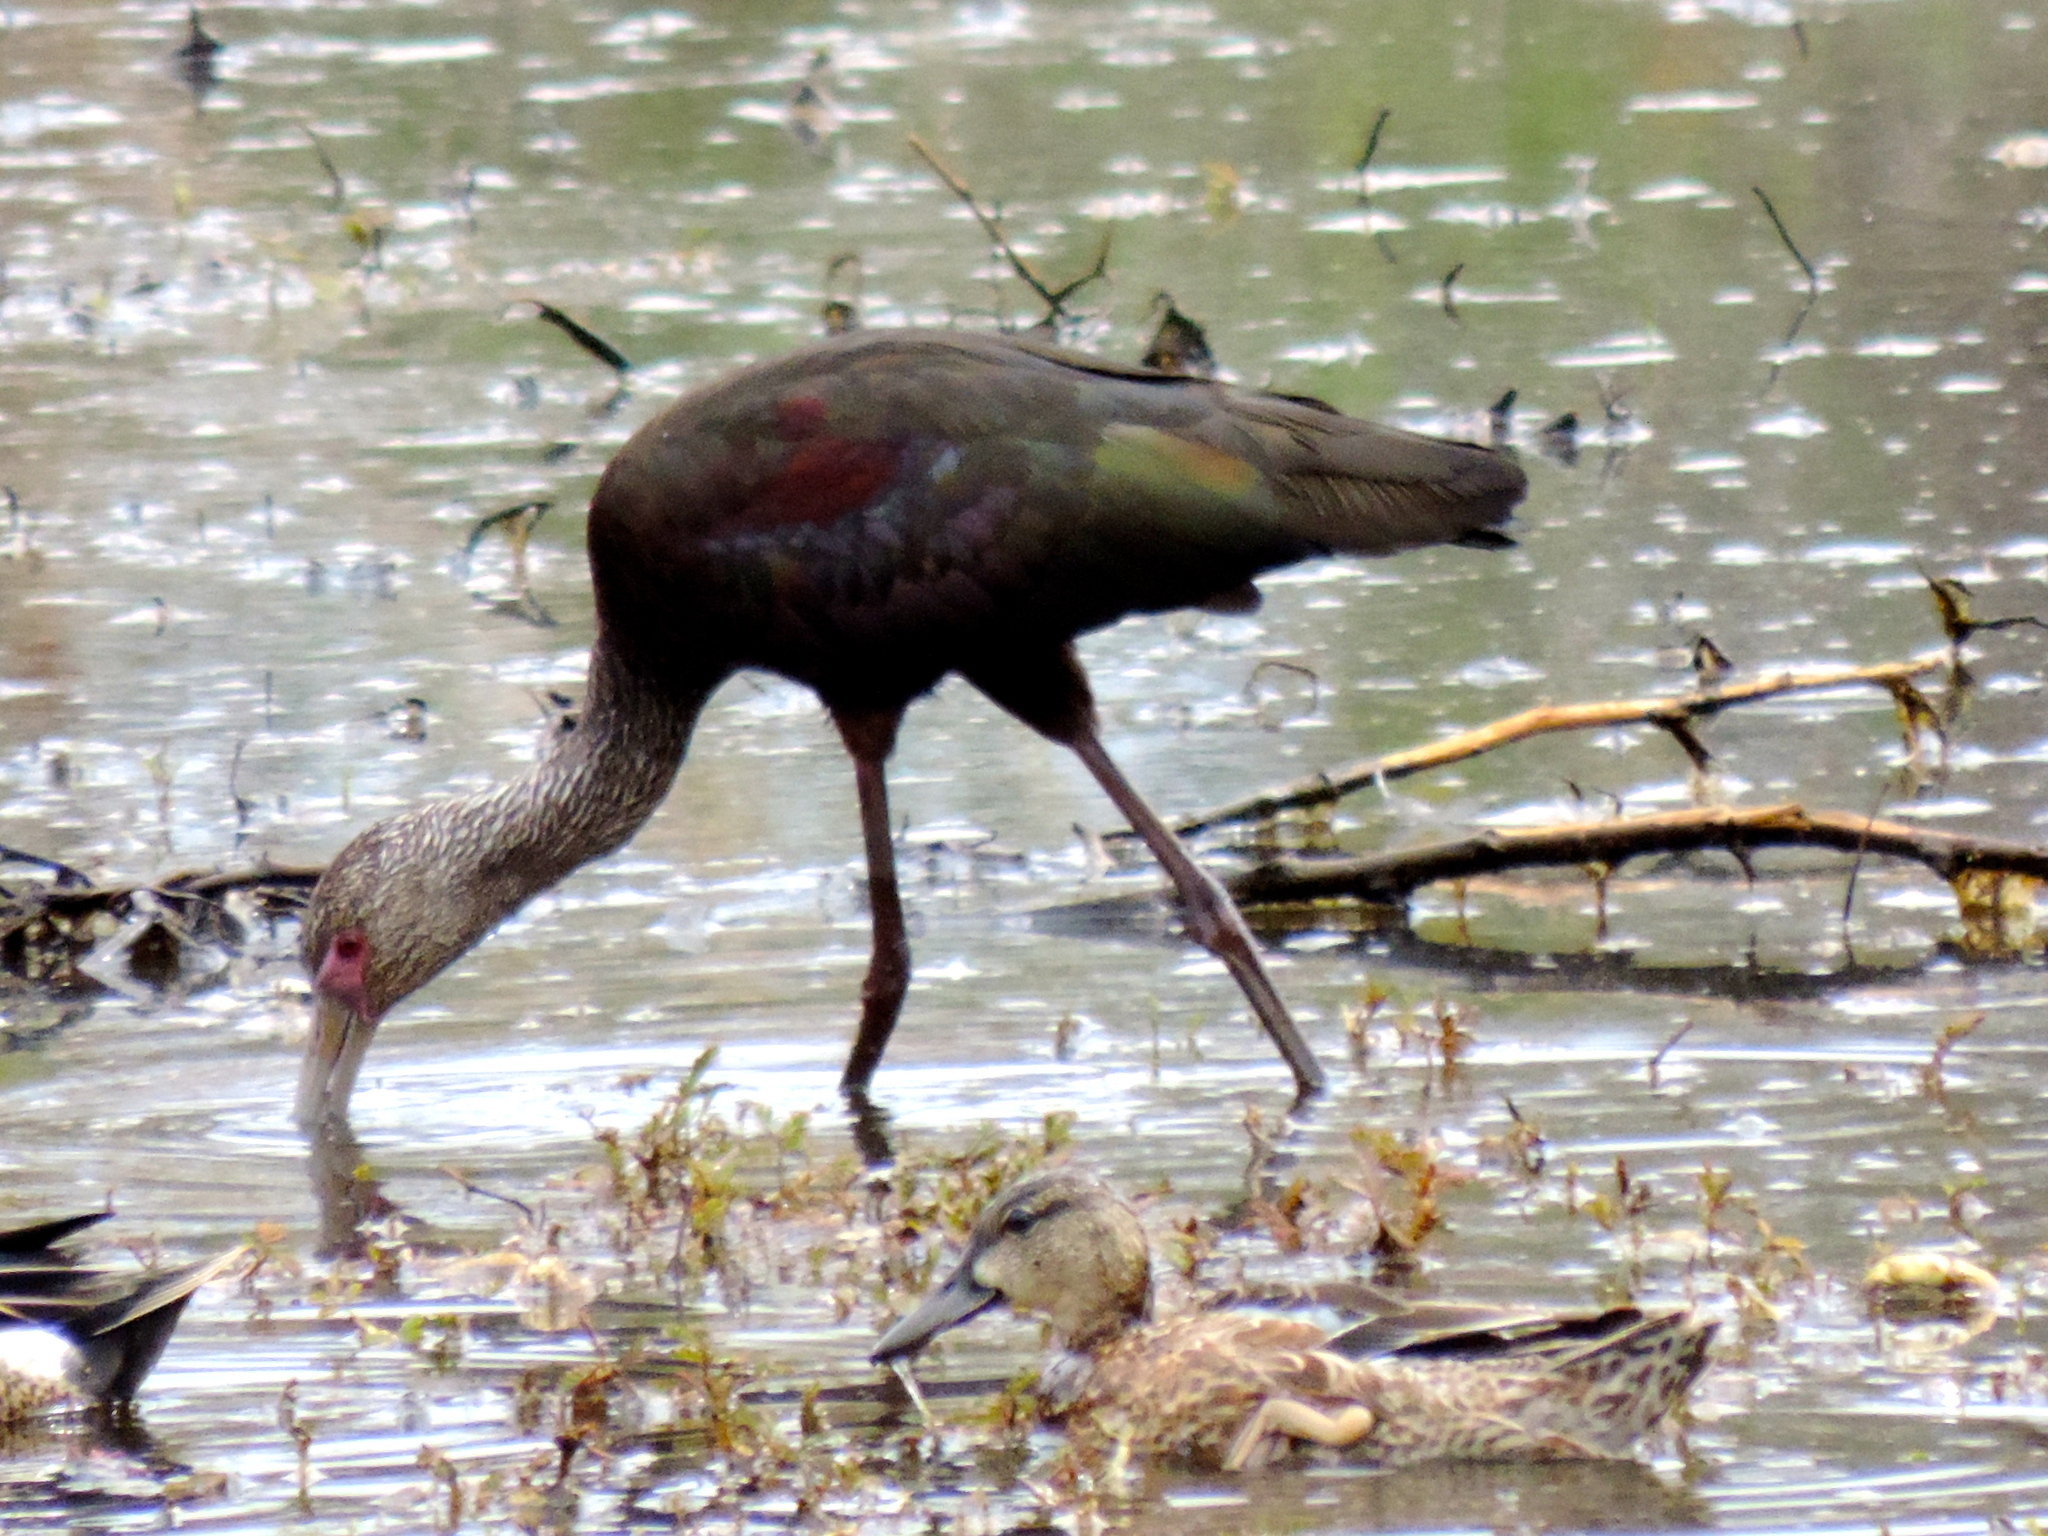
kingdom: Animalia
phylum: Chordata
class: Aves
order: Pelecaniformes
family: Threskiornithidae
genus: Plegadis
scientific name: Plegadis chihi
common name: White-faced ibis
